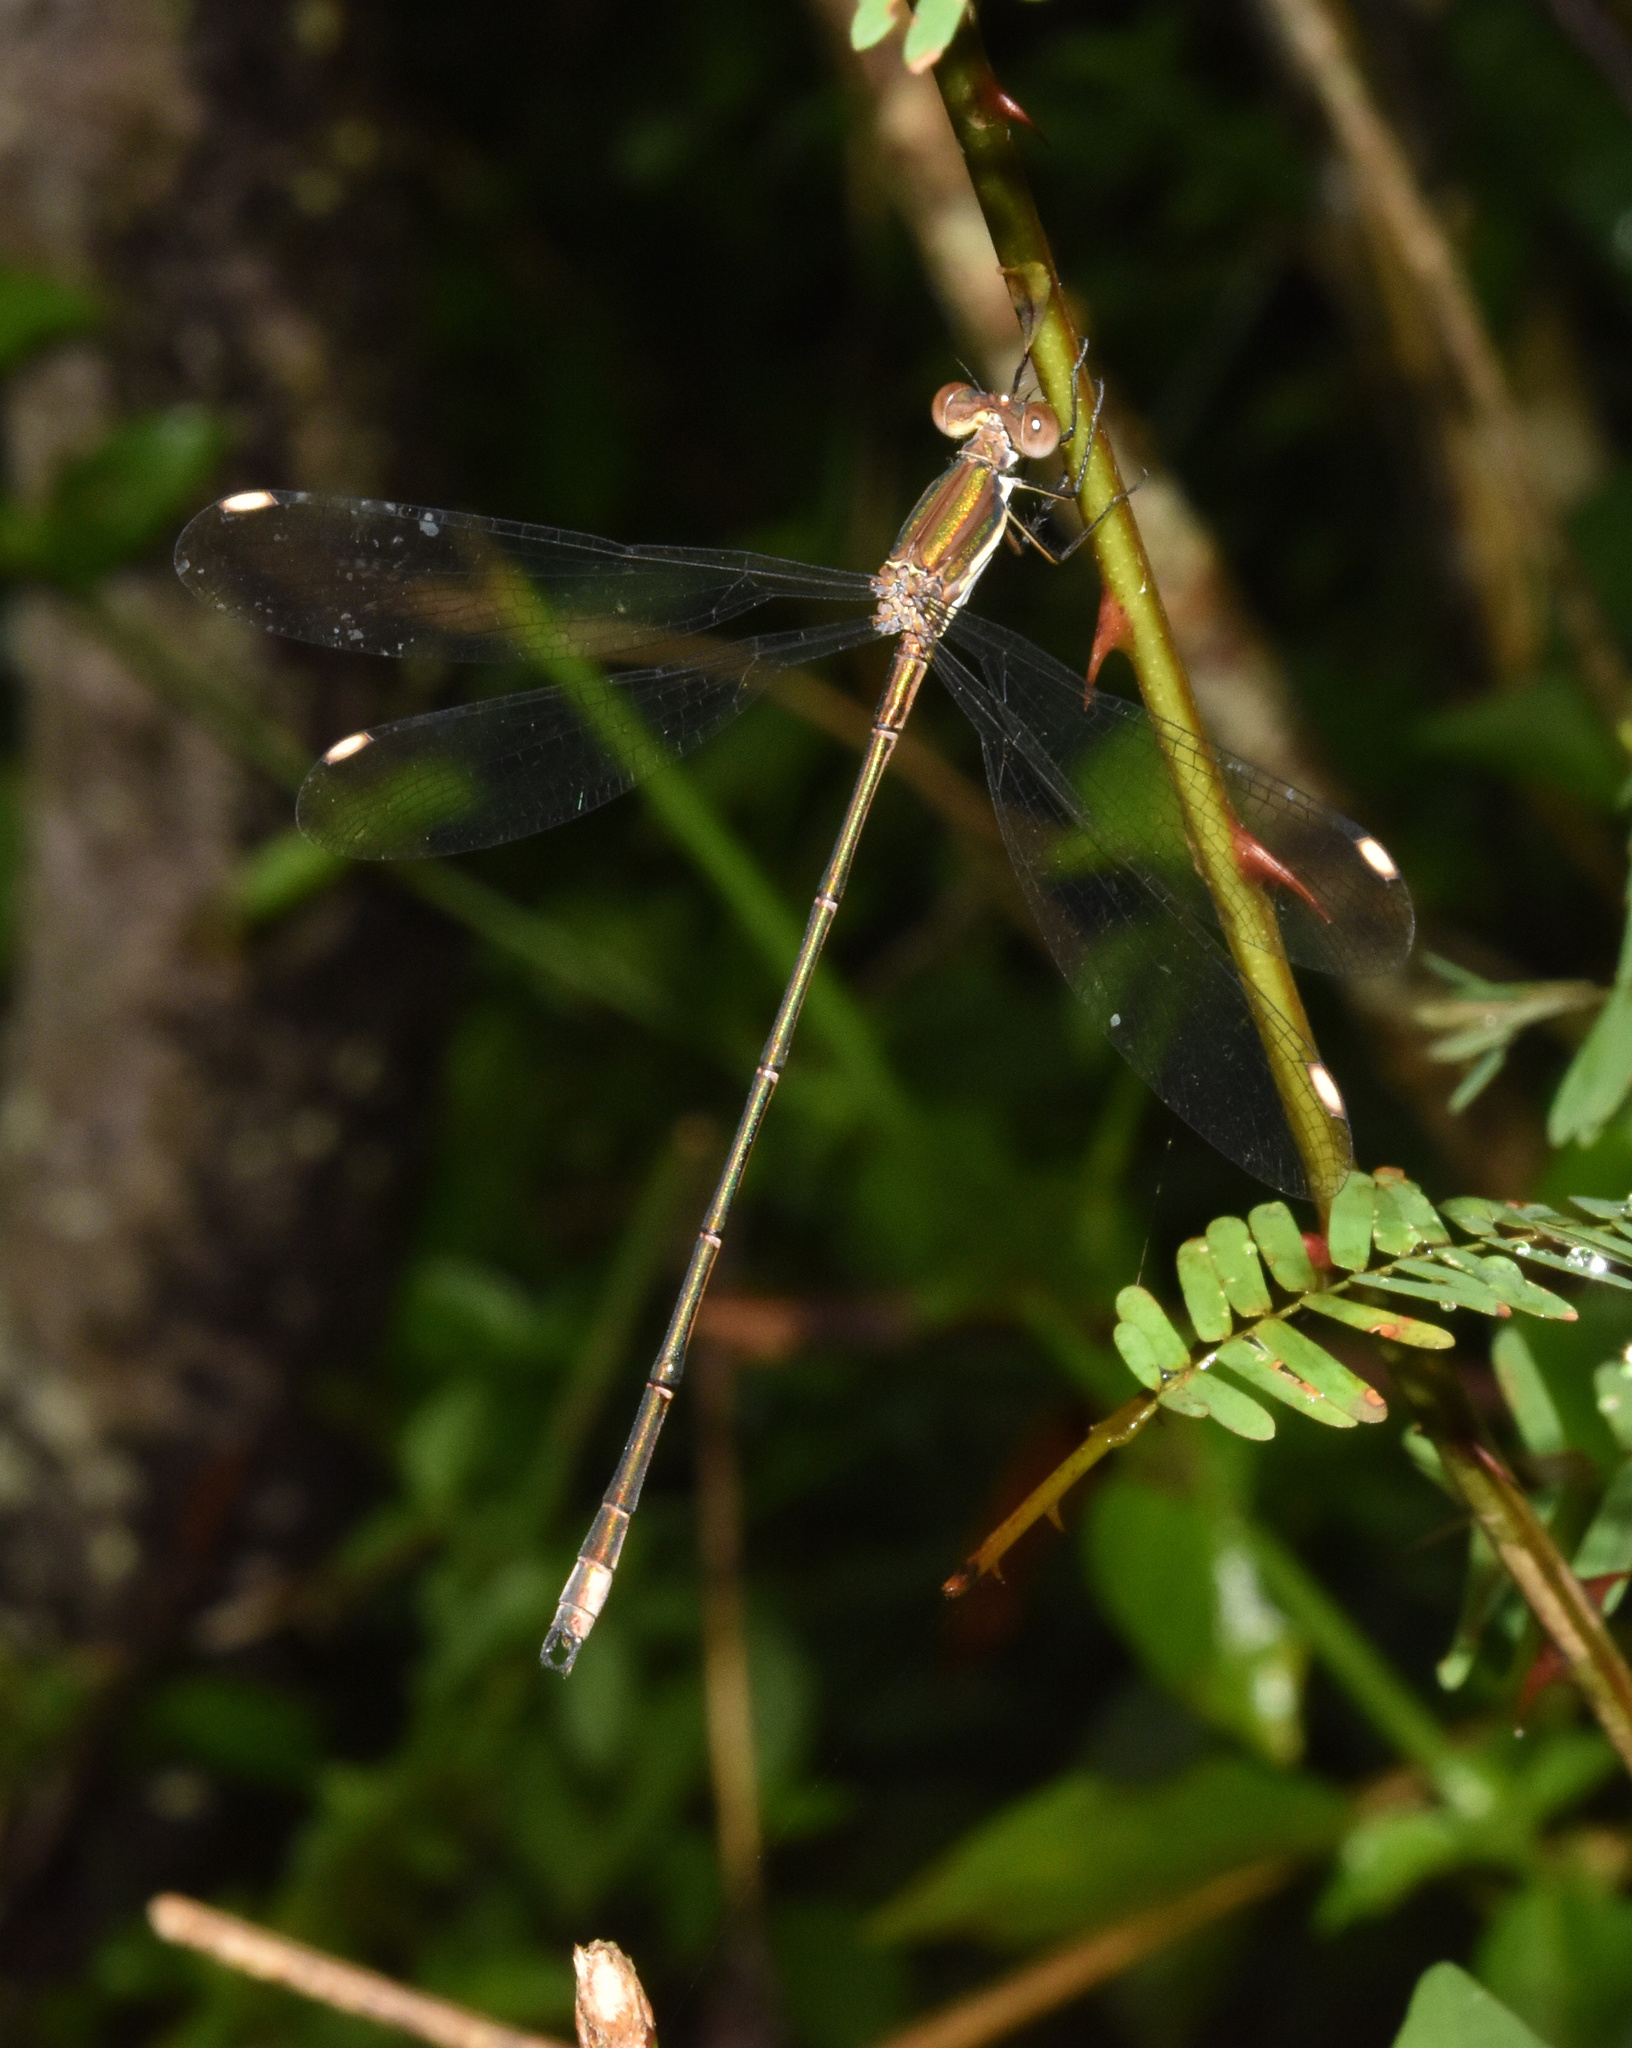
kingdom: Animalia
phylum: Arthropoda
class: Insecta
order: Odonata
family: Lestidae
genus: Lestes
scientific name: Lestes virgatus
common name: Smoky spreadwing
